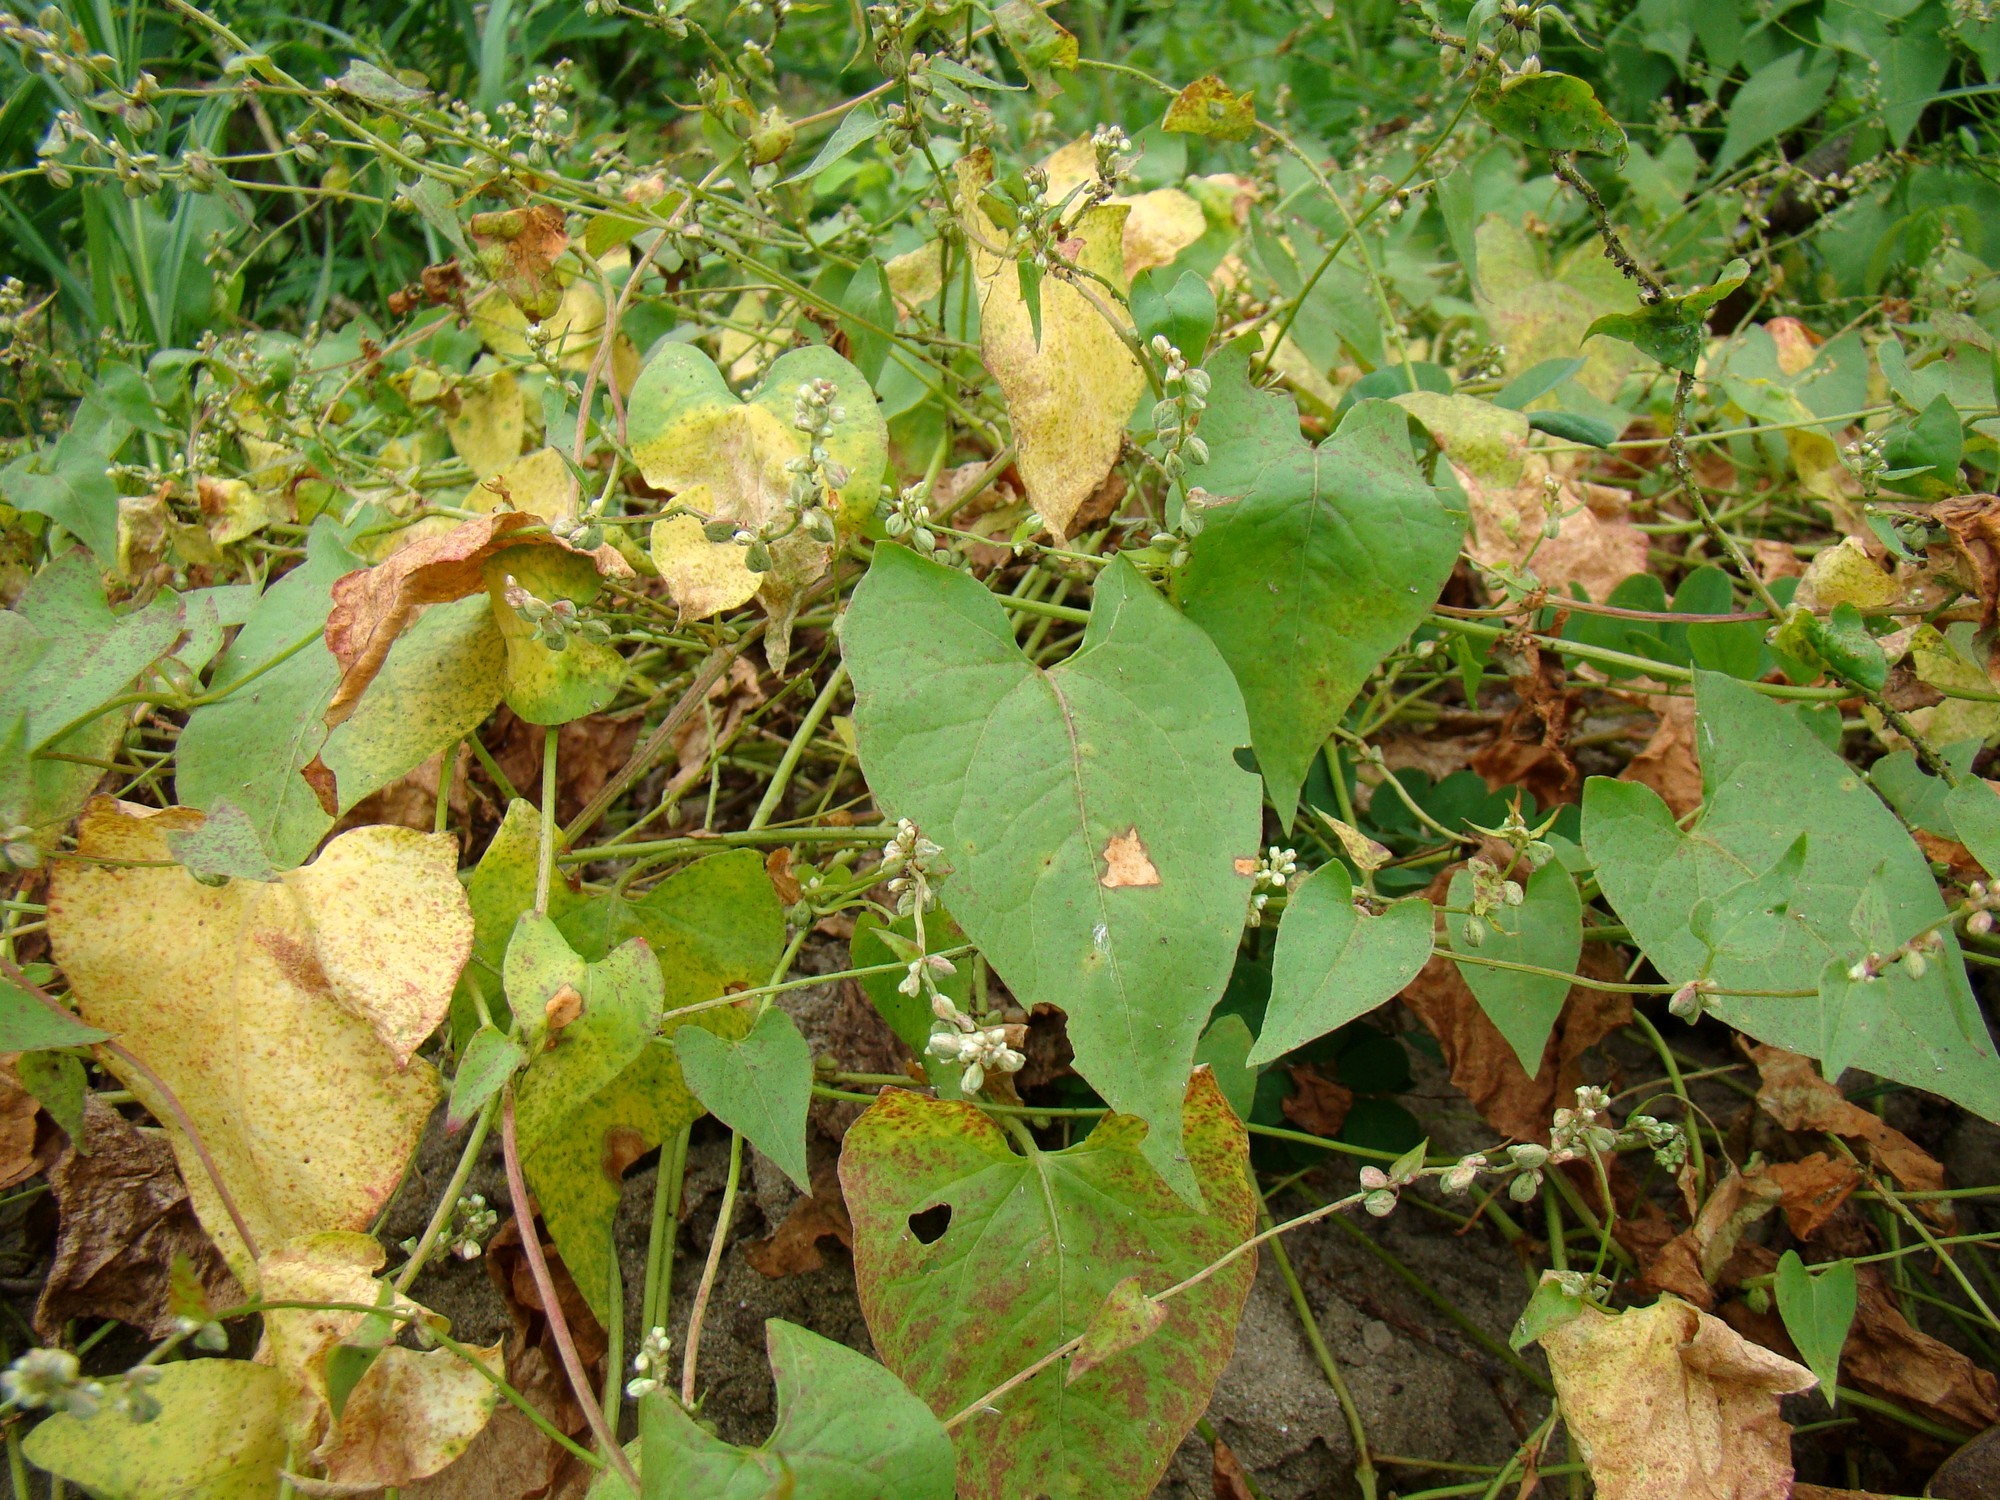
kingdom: Plantae
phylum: Tracheophyta
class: Magnoliopsida
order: Caryophyllales
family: Polygonaceae
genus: Fallopia
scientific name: Fallopia convolvulus
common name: Black bindweed
